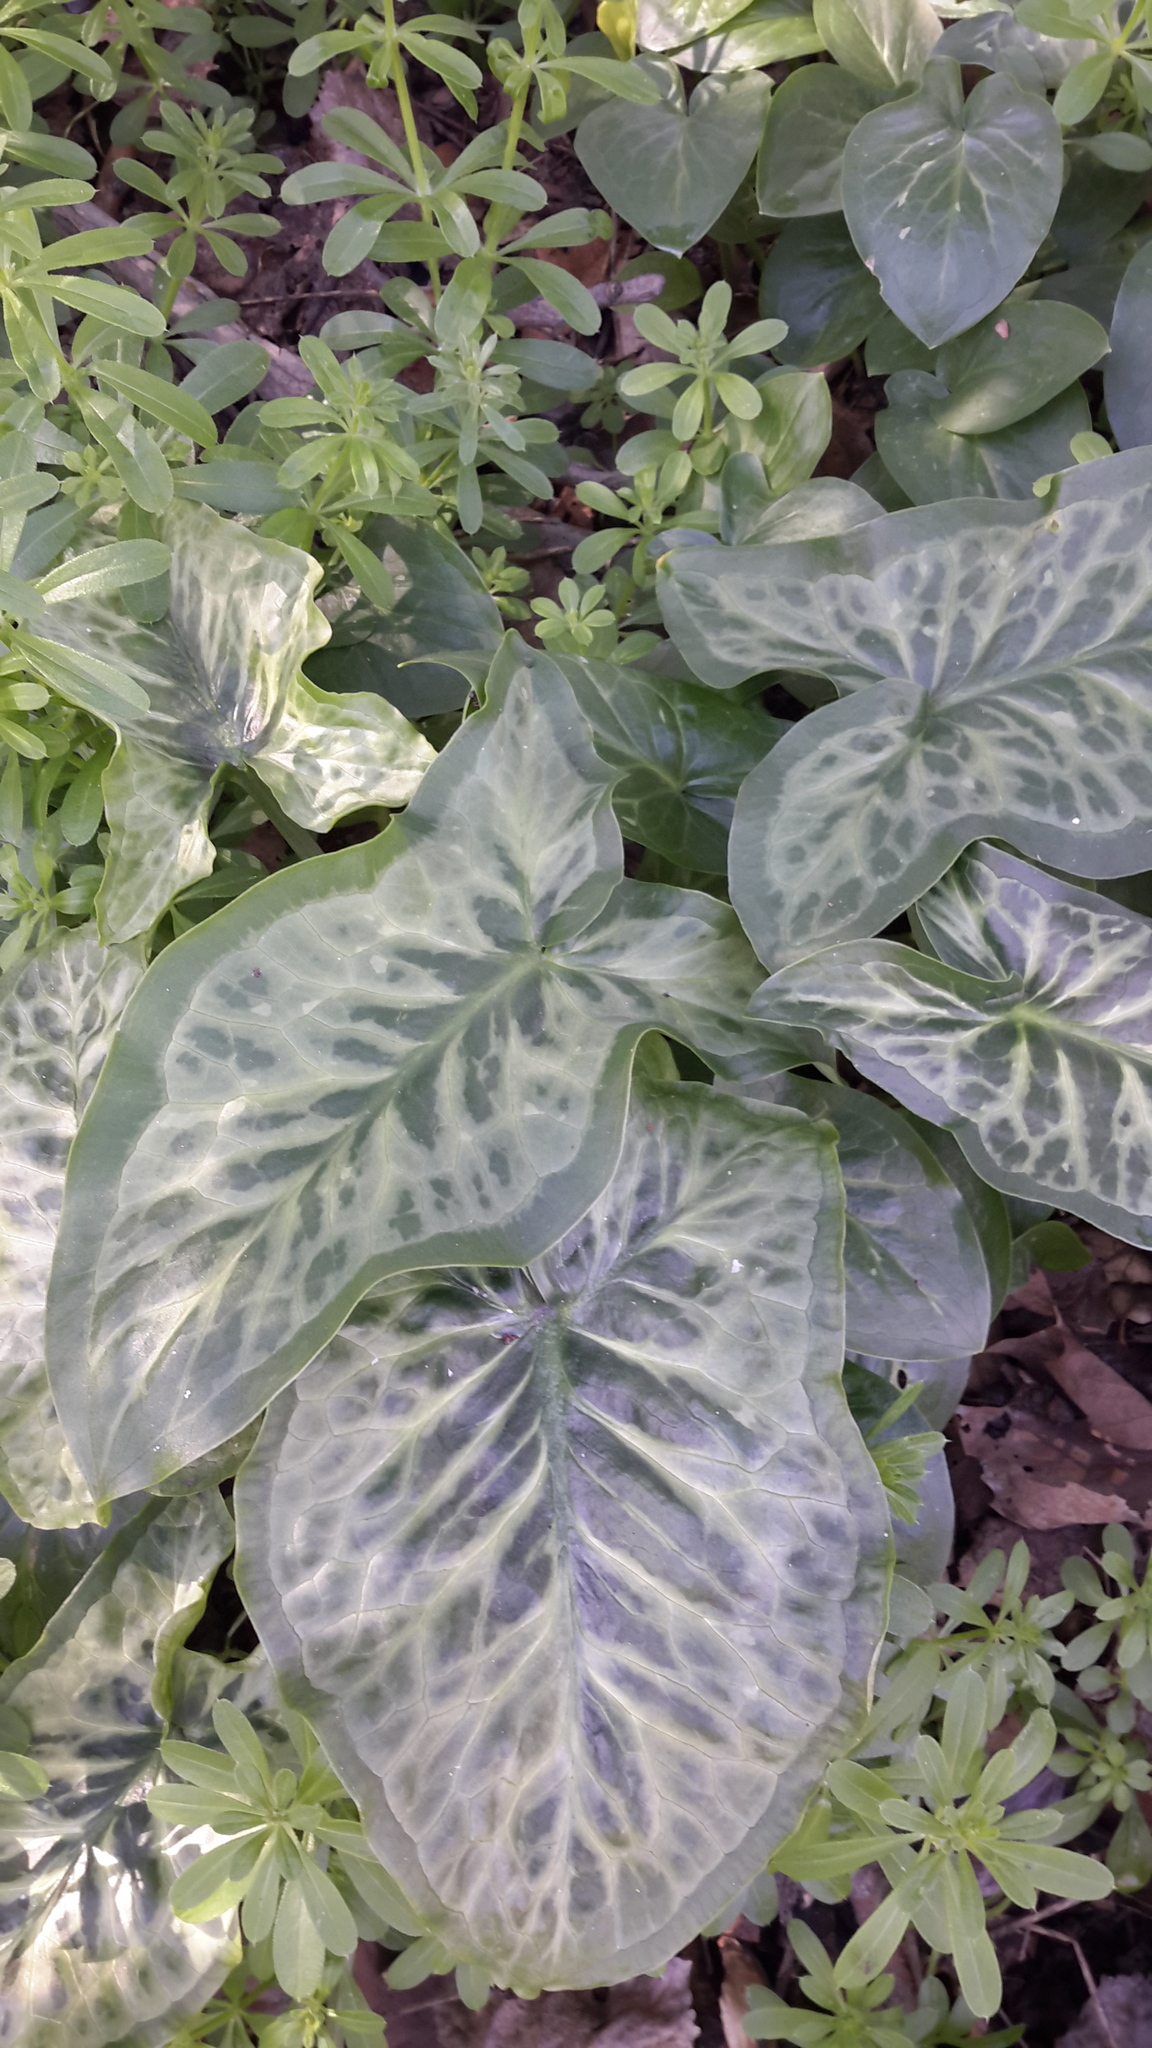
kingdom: Plantae
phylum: Tracheophyta
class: Liliopsida
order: Alismatales
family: Araceae
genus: Arum
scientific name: Arum italicum
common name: Italian lords-and-ladies
